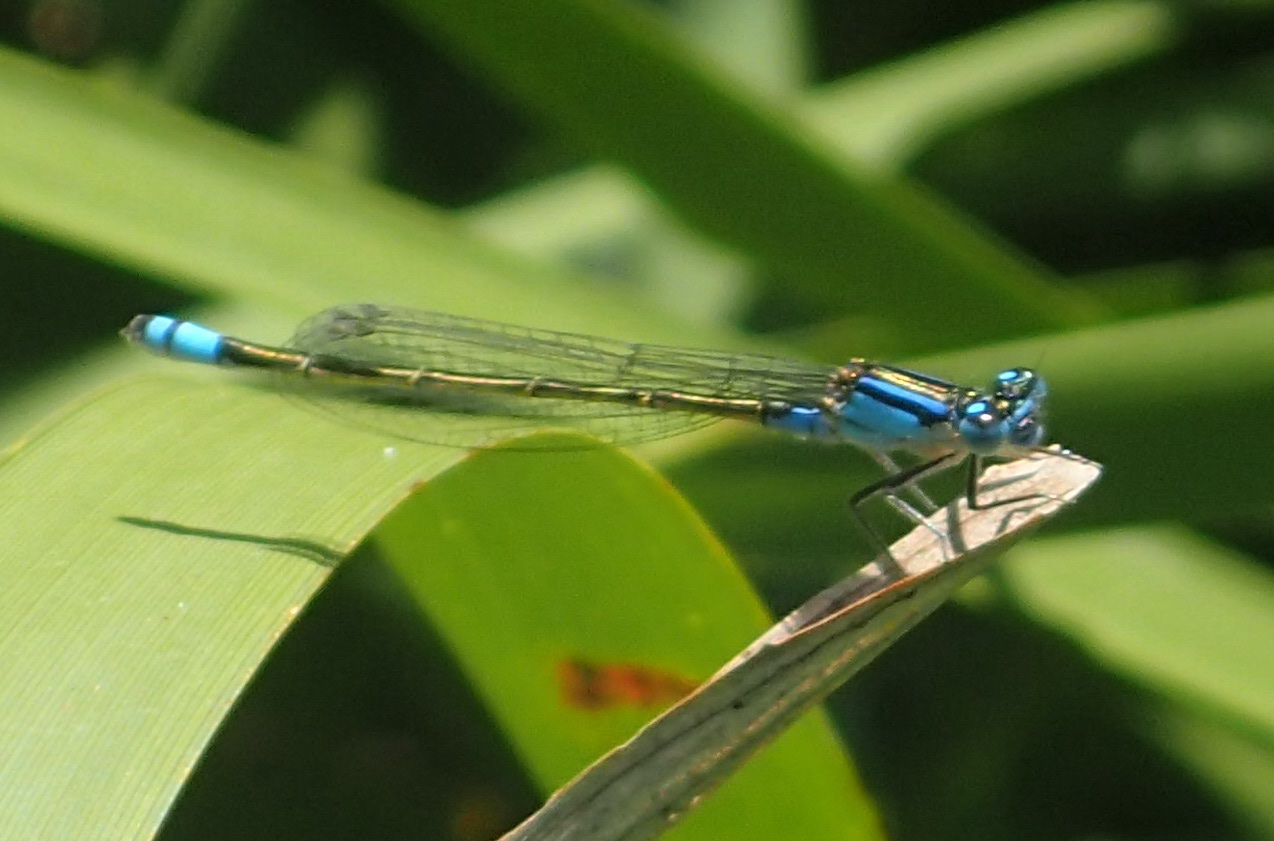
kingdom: Animalia
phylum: Arthropoda
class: Insecta
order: Odonata
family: Coenagrionidae
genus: Ischnura
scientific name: Ischnura heterosticta
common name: Common bluetail
